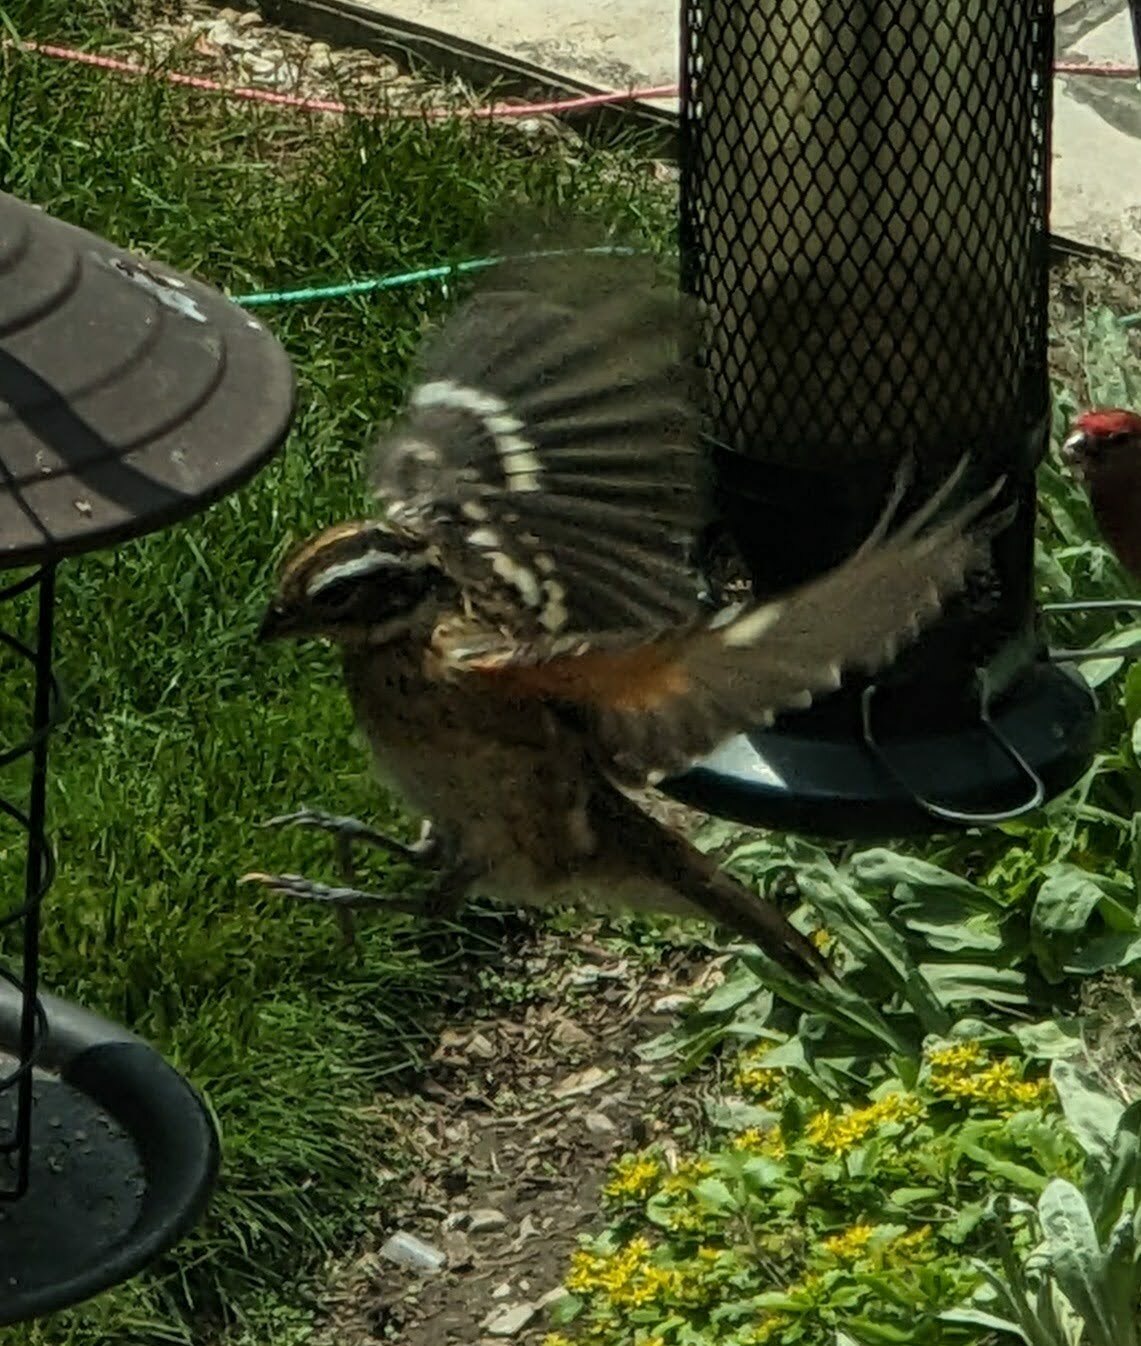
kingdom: Animalia
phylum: Chordata
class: Aves
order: Passeriformes
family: Cardinalidae
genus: Pheucticus
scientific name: Pheucticus ludovicianus
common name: Rose-breasted grosbeak
